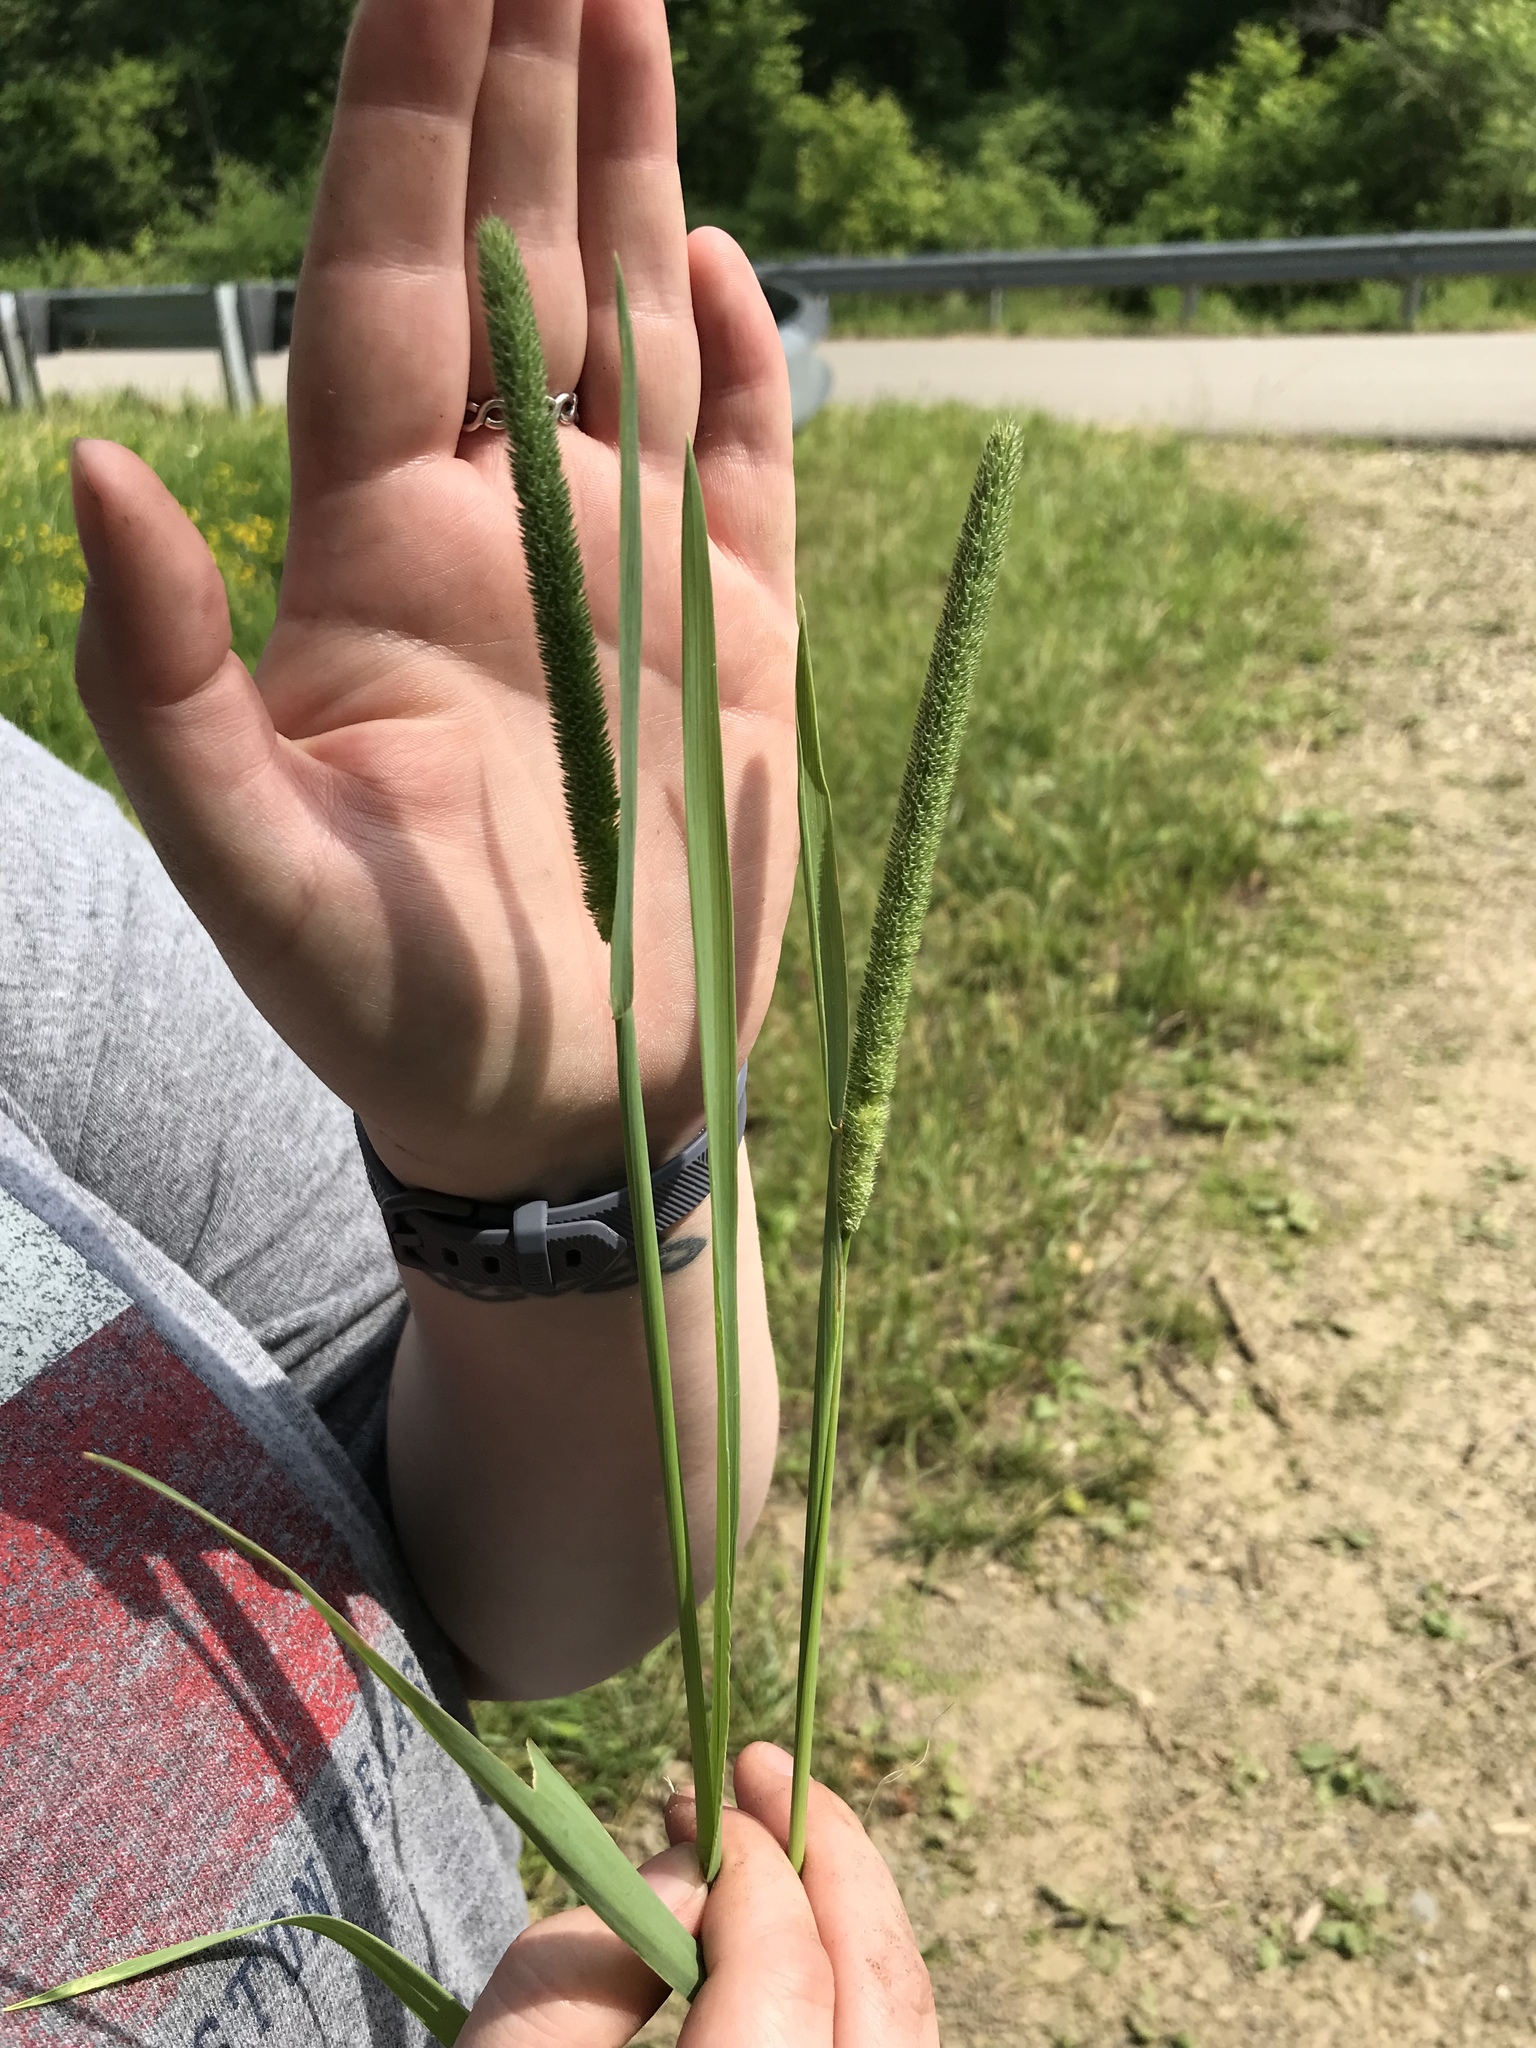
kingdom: Plantae
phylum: Tracheophyta
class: Liliopsida
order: Poales
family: Poaceae
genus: Phleum
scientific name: Phleum pratense
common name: Timothy grass
